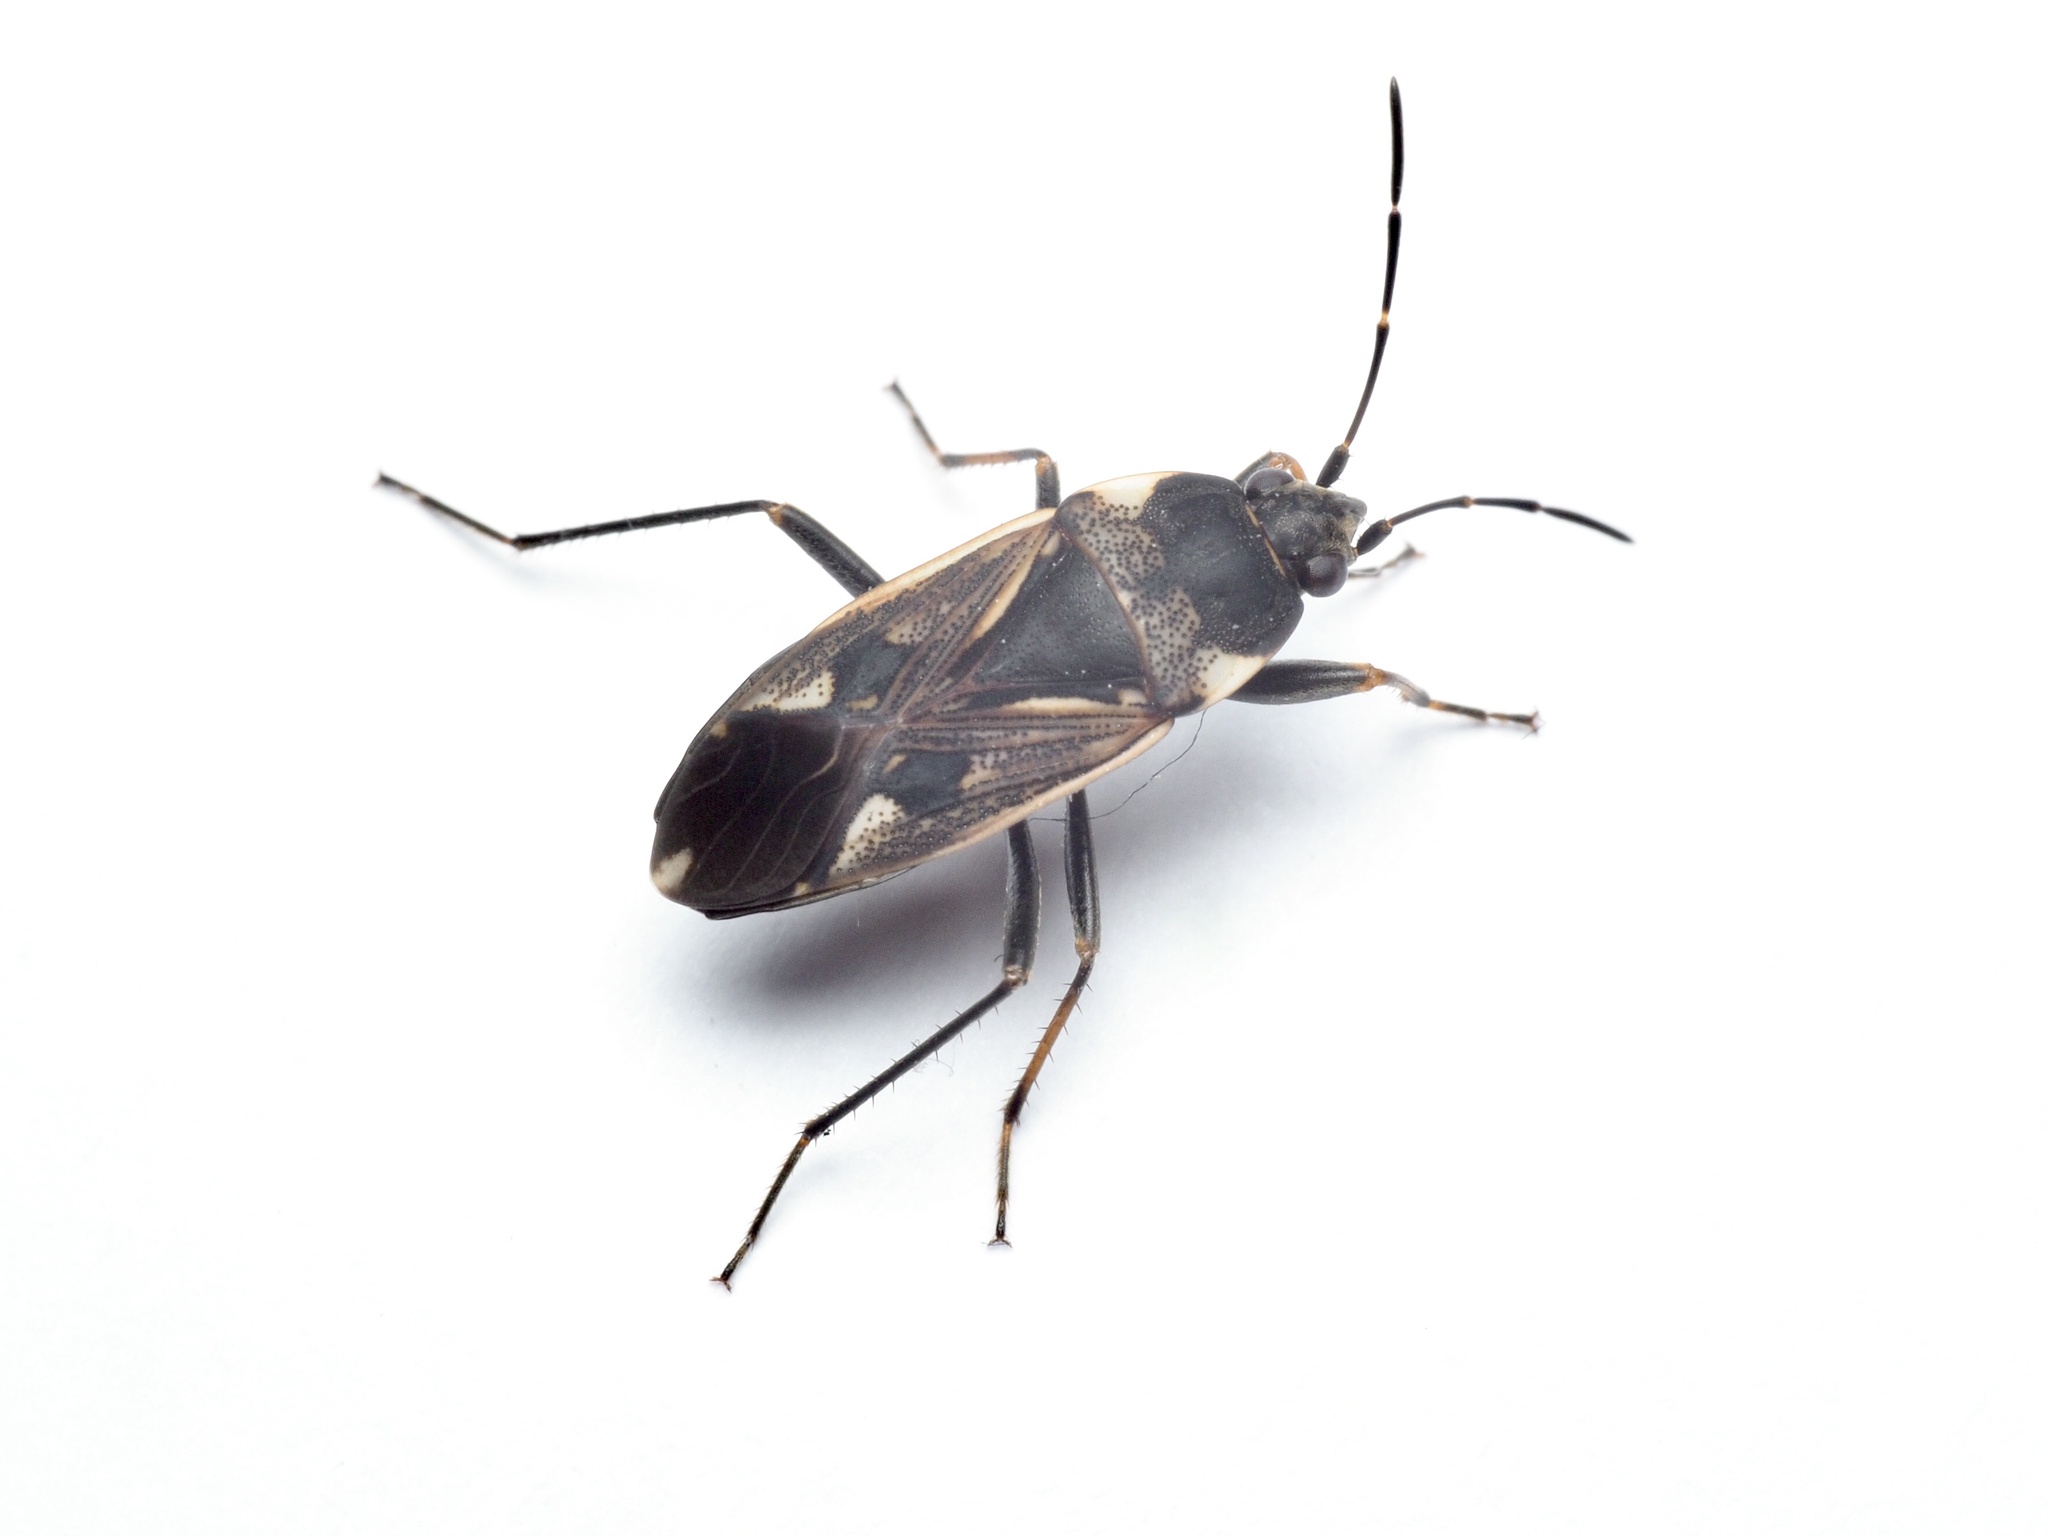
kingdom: Animalia
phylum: Arthropoda
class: Insecta
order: Hemiptera
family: Rhyparochromidae
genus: Rhyparochromus
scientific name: Rhyparochromus vulgaris
